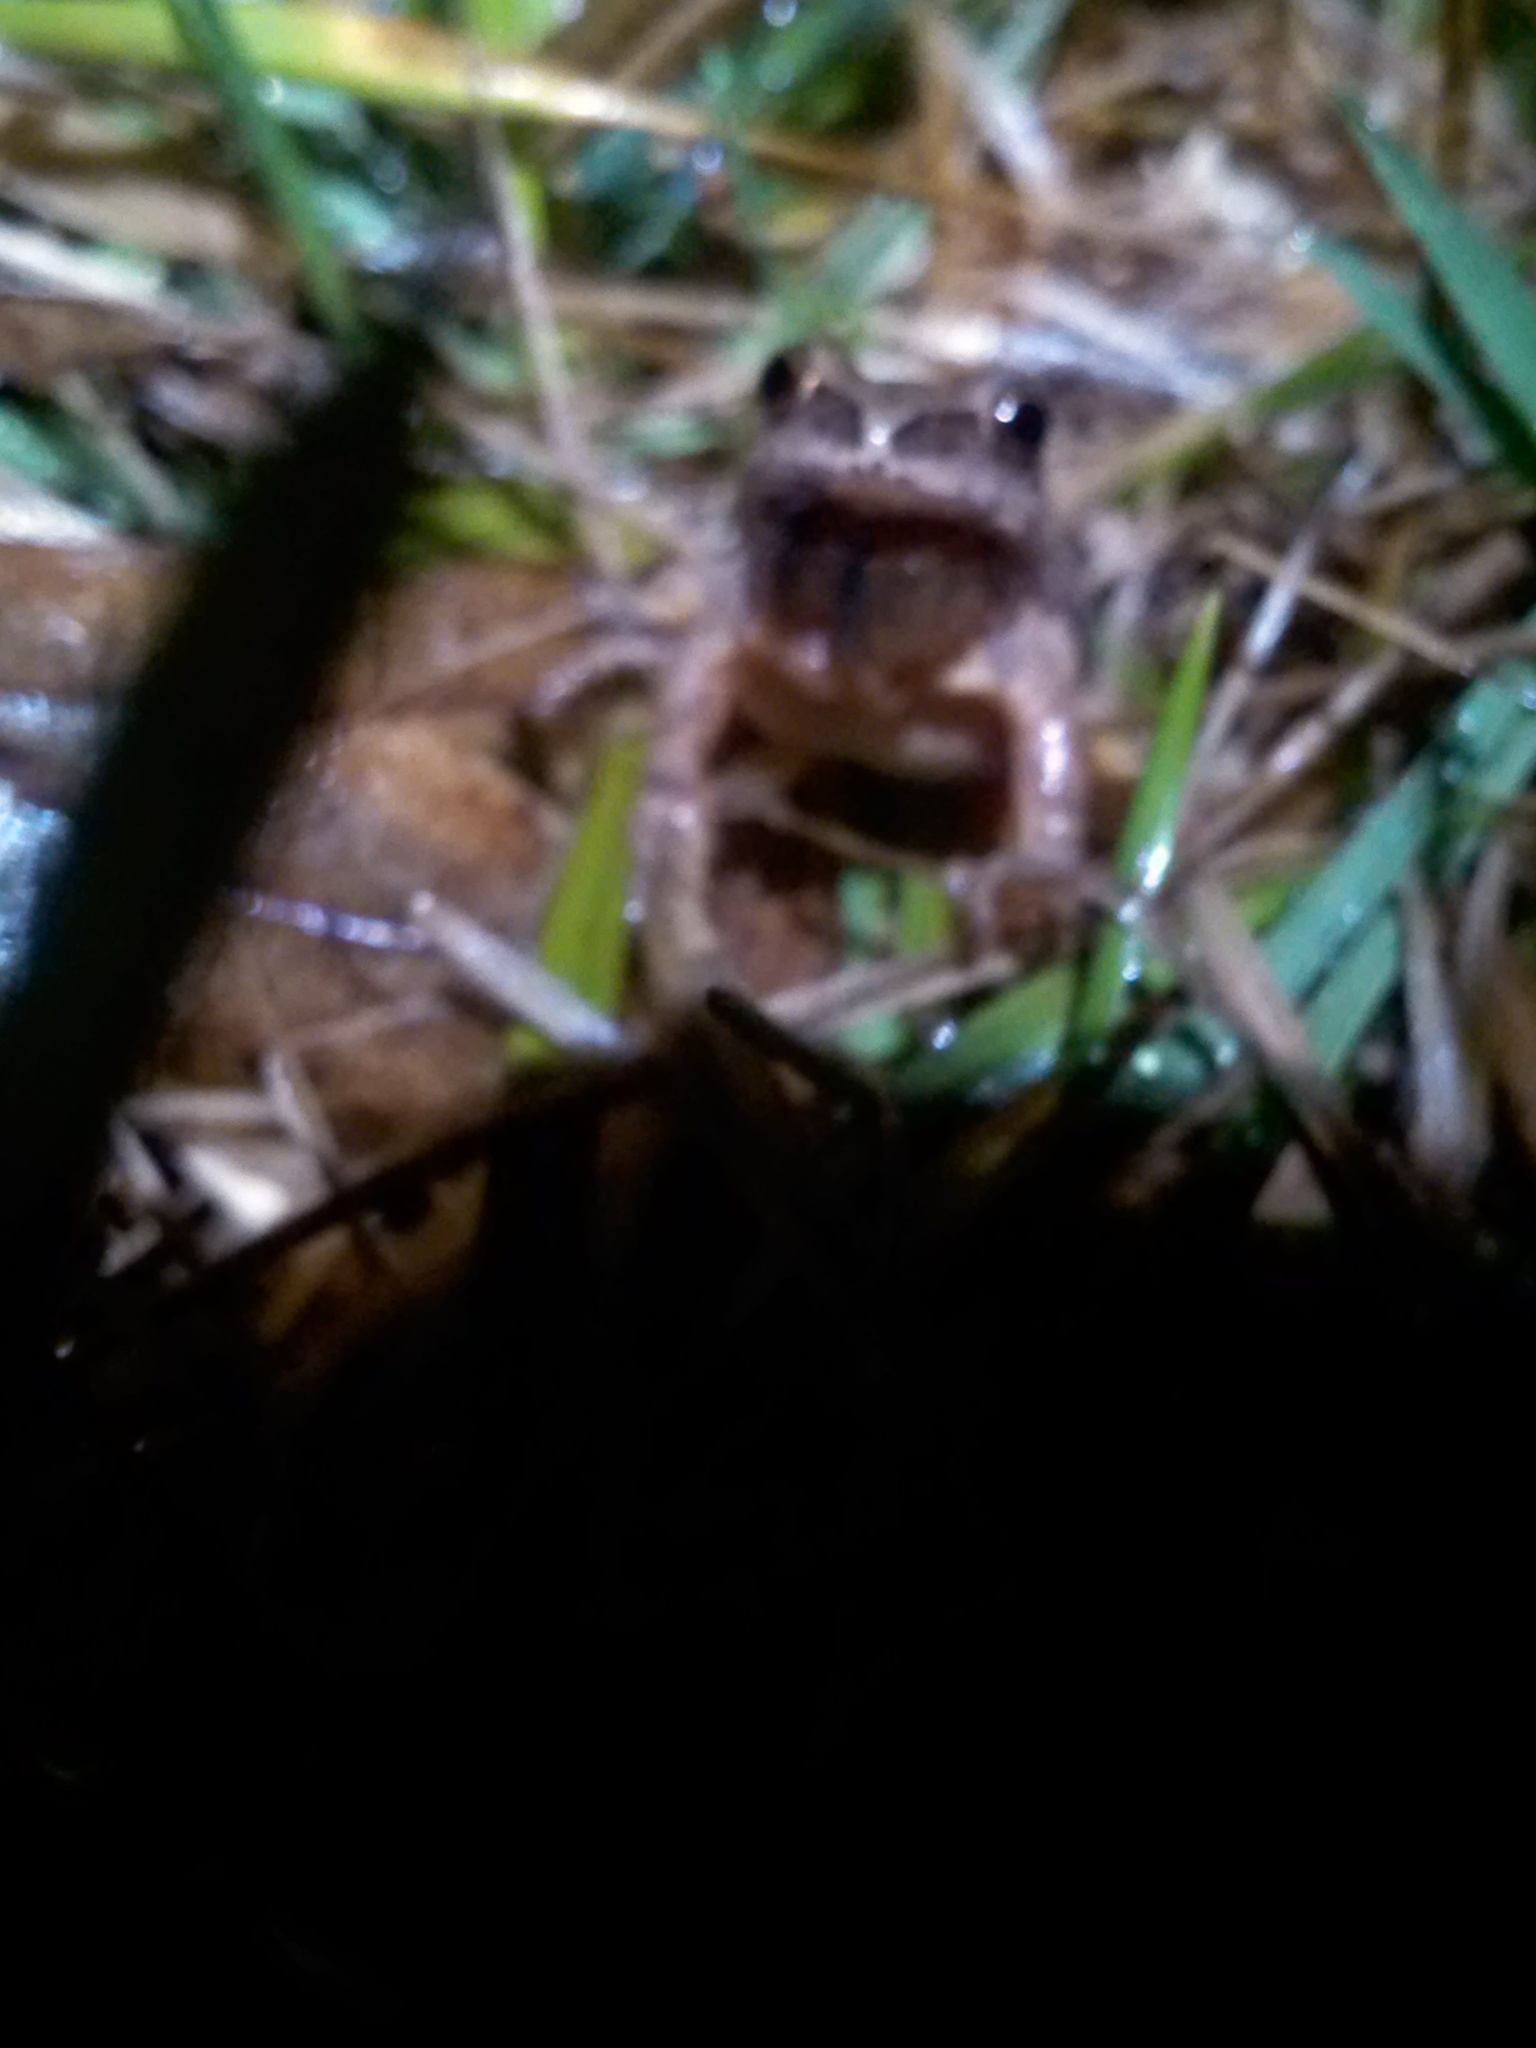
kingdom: Animalia
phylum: Chordata
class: Amphibia
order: Anura
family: Hylidae
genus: Pseudacris
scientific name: Pseudacris crucifer
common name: Spring peeper
